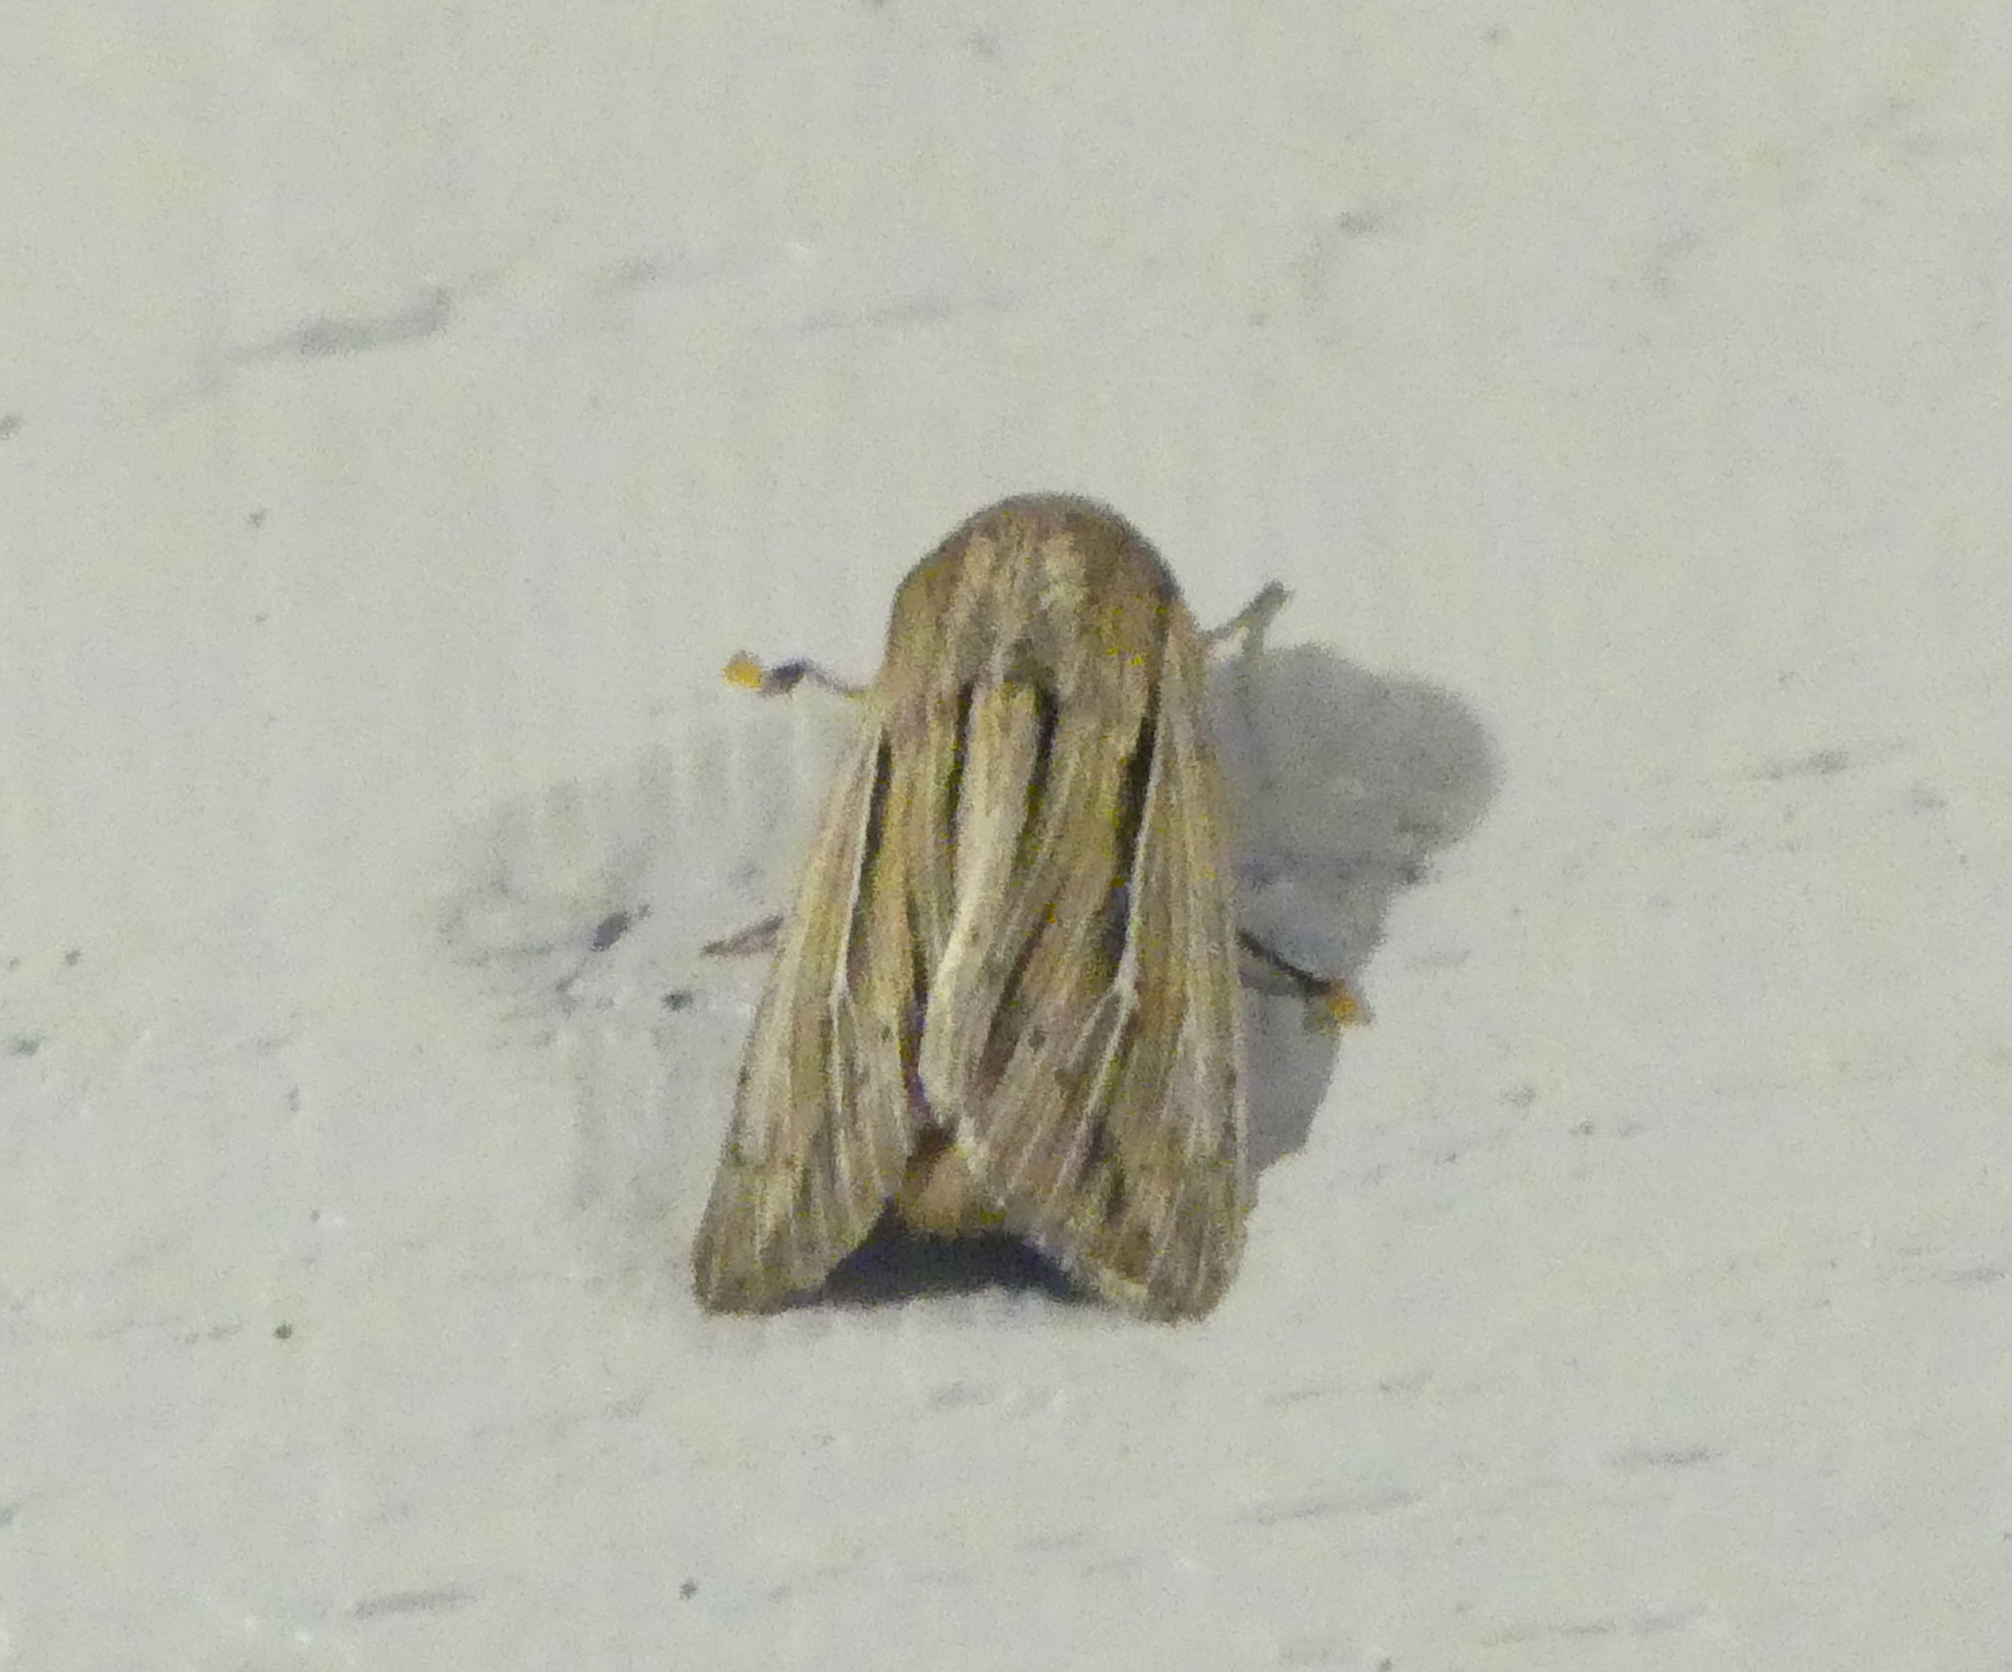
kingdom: Animalia
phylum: Arthropoda
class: Insecta
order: Lepidoptera
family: Noctuidae
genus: Leucania
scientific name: Leucania commoides
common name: Two-lined wainscot
